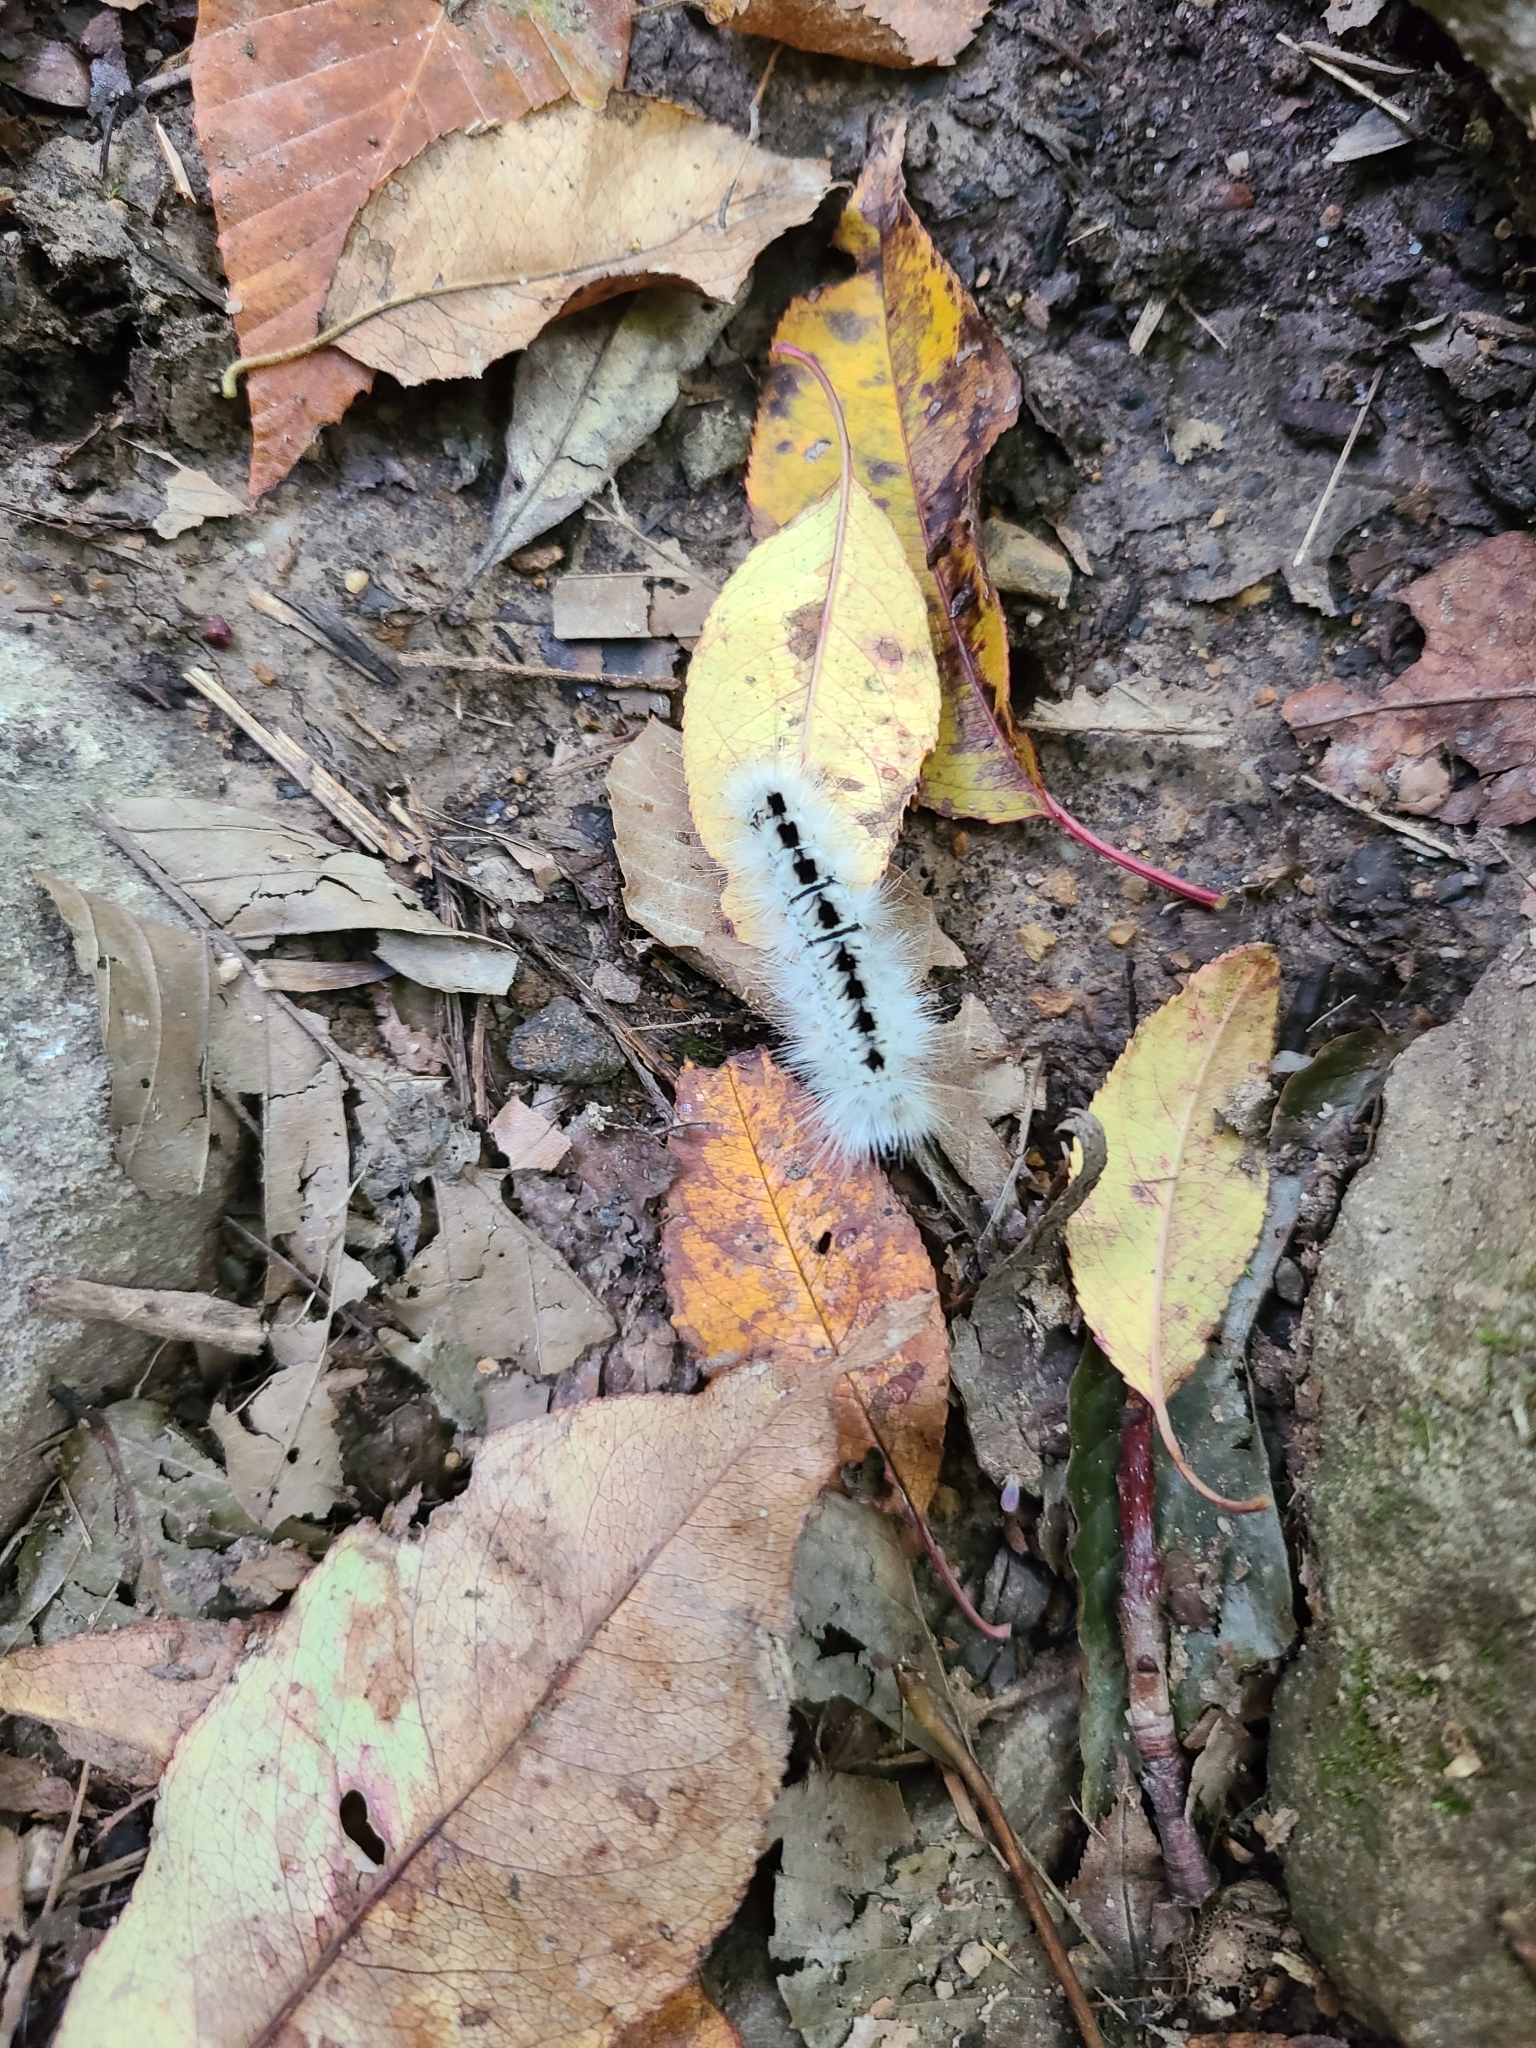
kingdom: Animalia
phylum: Arthropoda
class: Insecta
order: Lepidoptera
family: Erebidae
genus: Lophocampa
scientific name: Lophocampa caryae
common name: Hickory tussock moth
